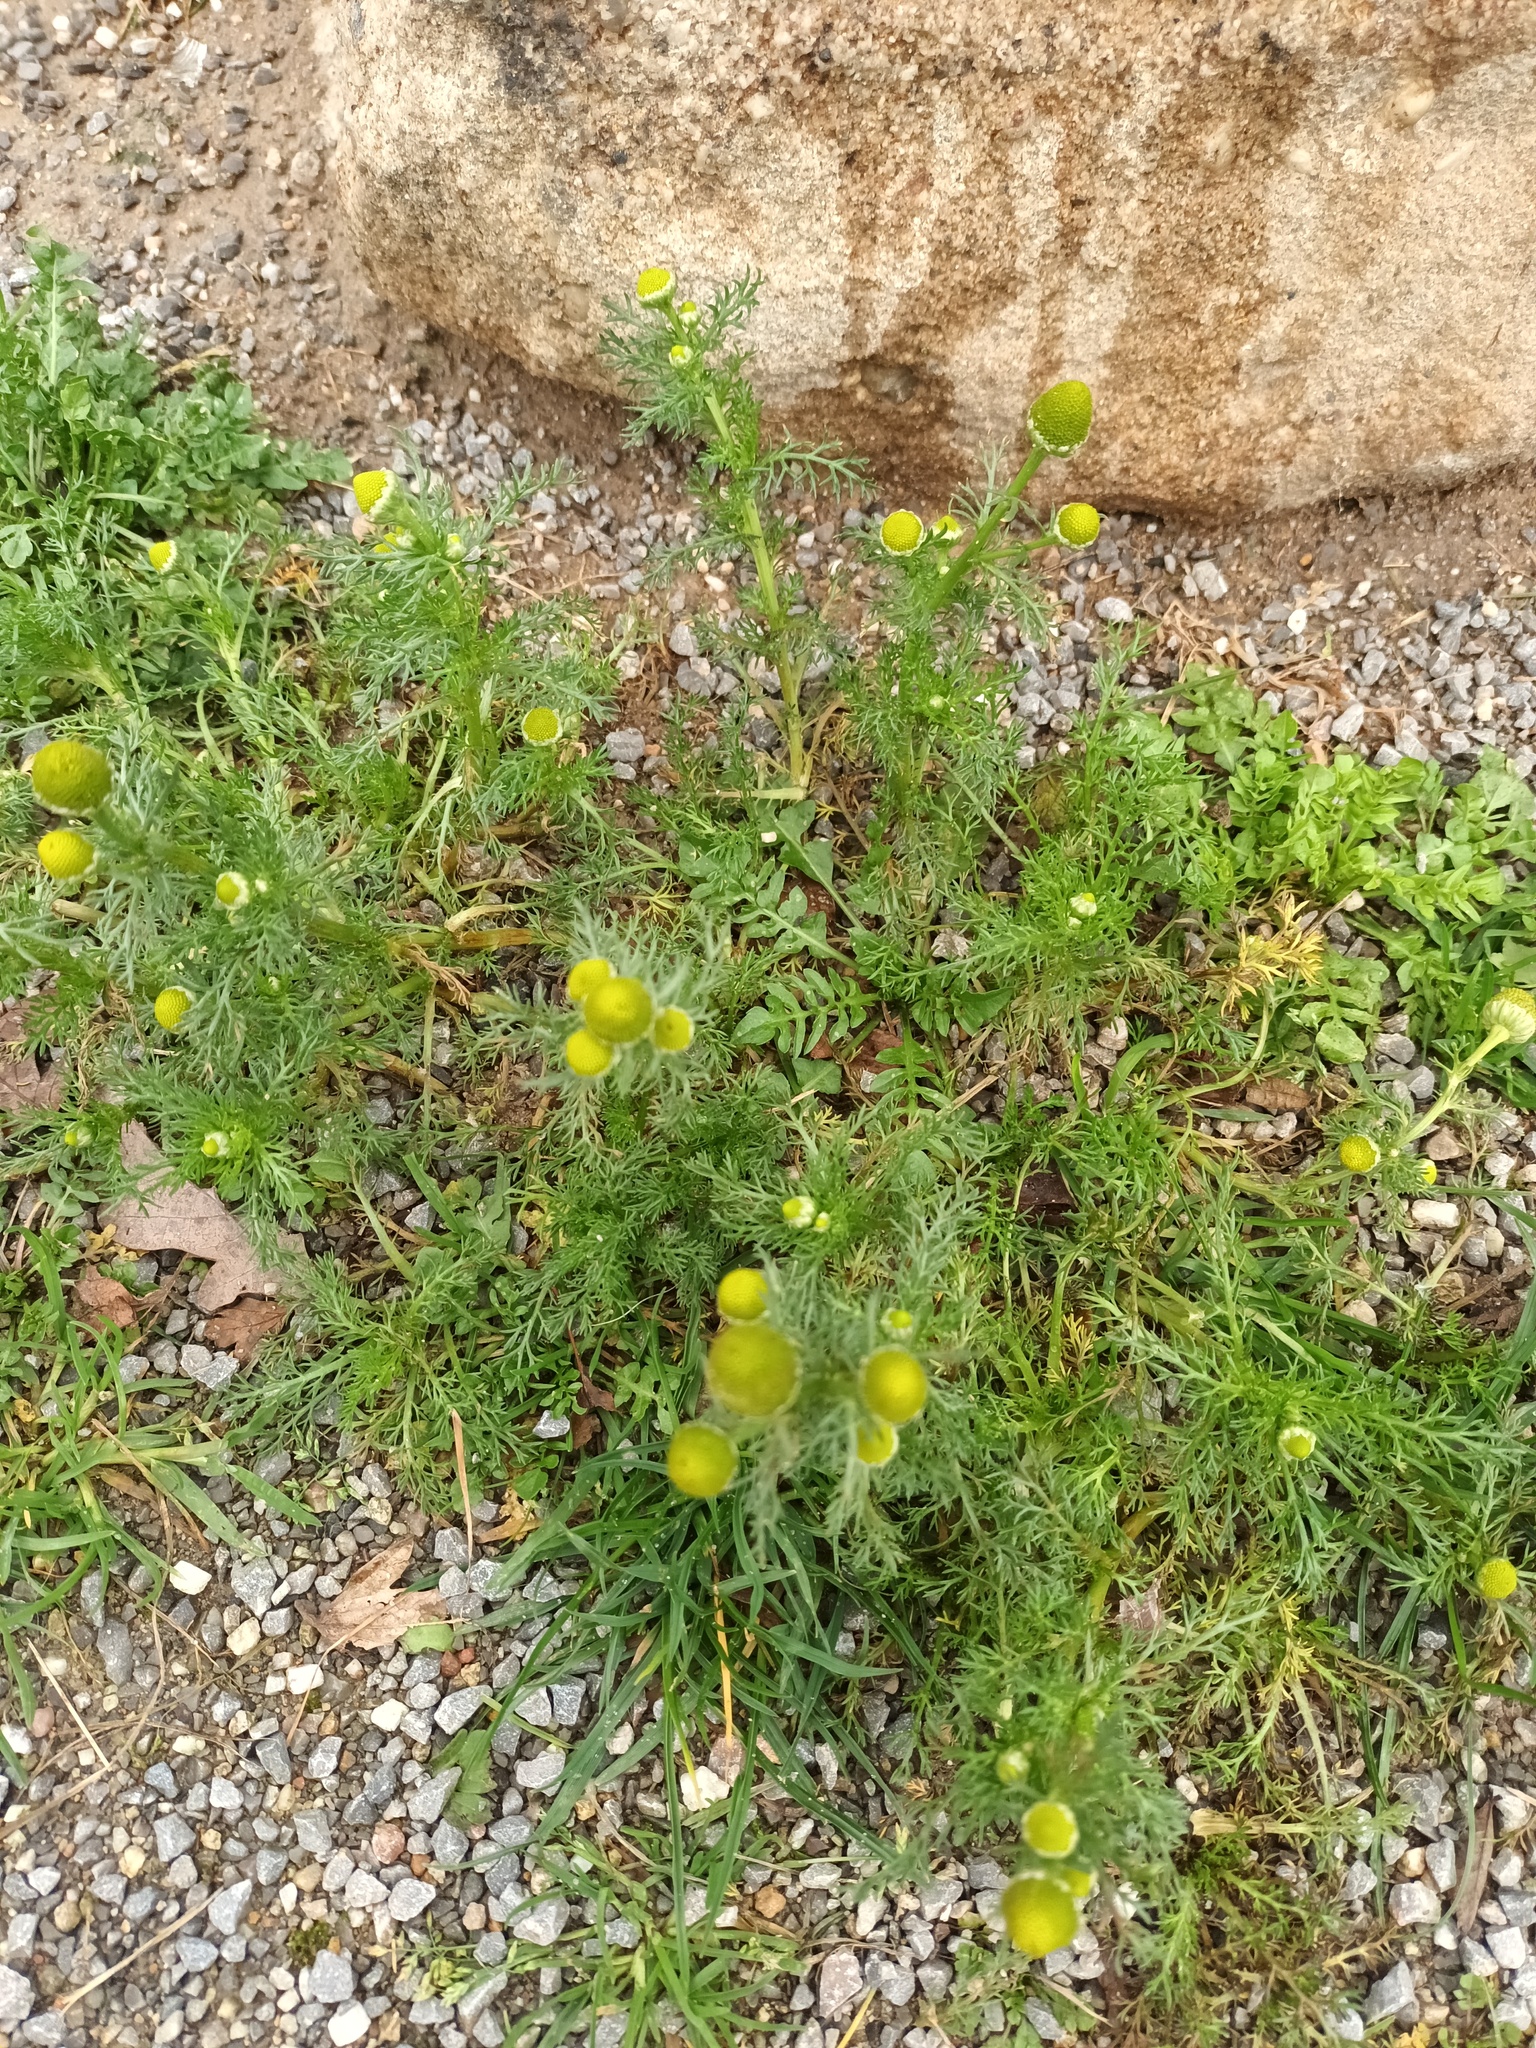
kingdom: Plantae
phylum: Tracheophyta
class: Magnoliopsida
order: Asterales
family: Asteraceae
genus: Matricaria
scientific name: Matricaria discoidea
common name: Disc mayweed
